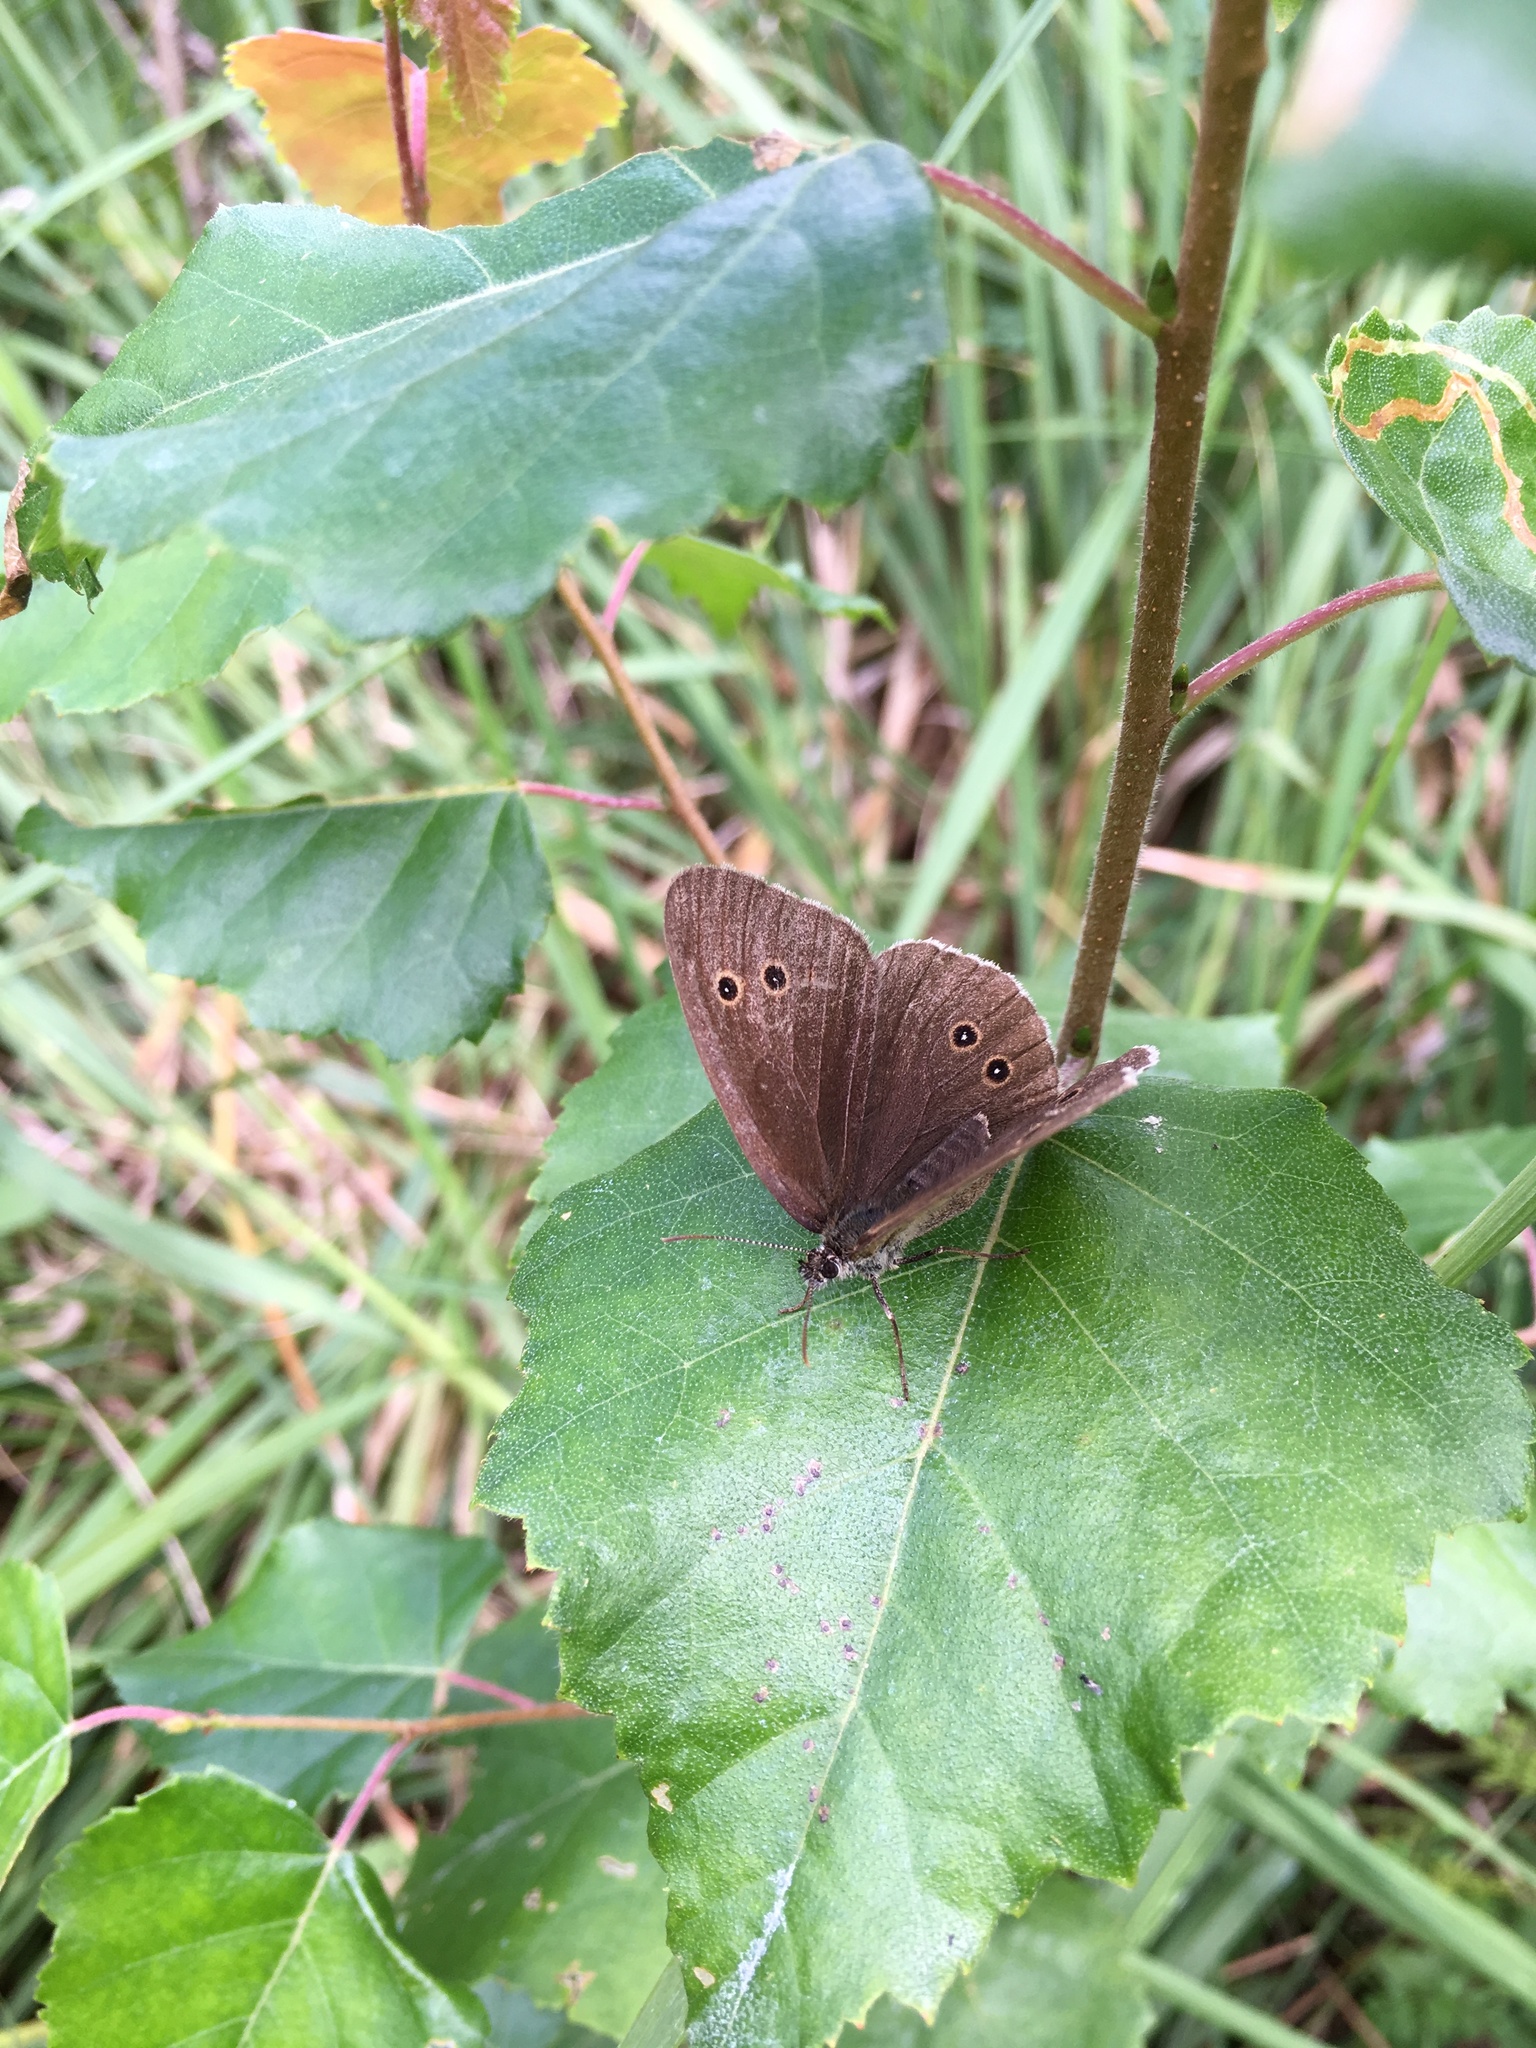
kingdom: Animalia
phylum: Arthropoda
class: Insecta
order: Lepidoptera
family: Nymphalidae
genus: Aphantopus
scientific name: Aphantopus hyperantus
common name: Ringlet
